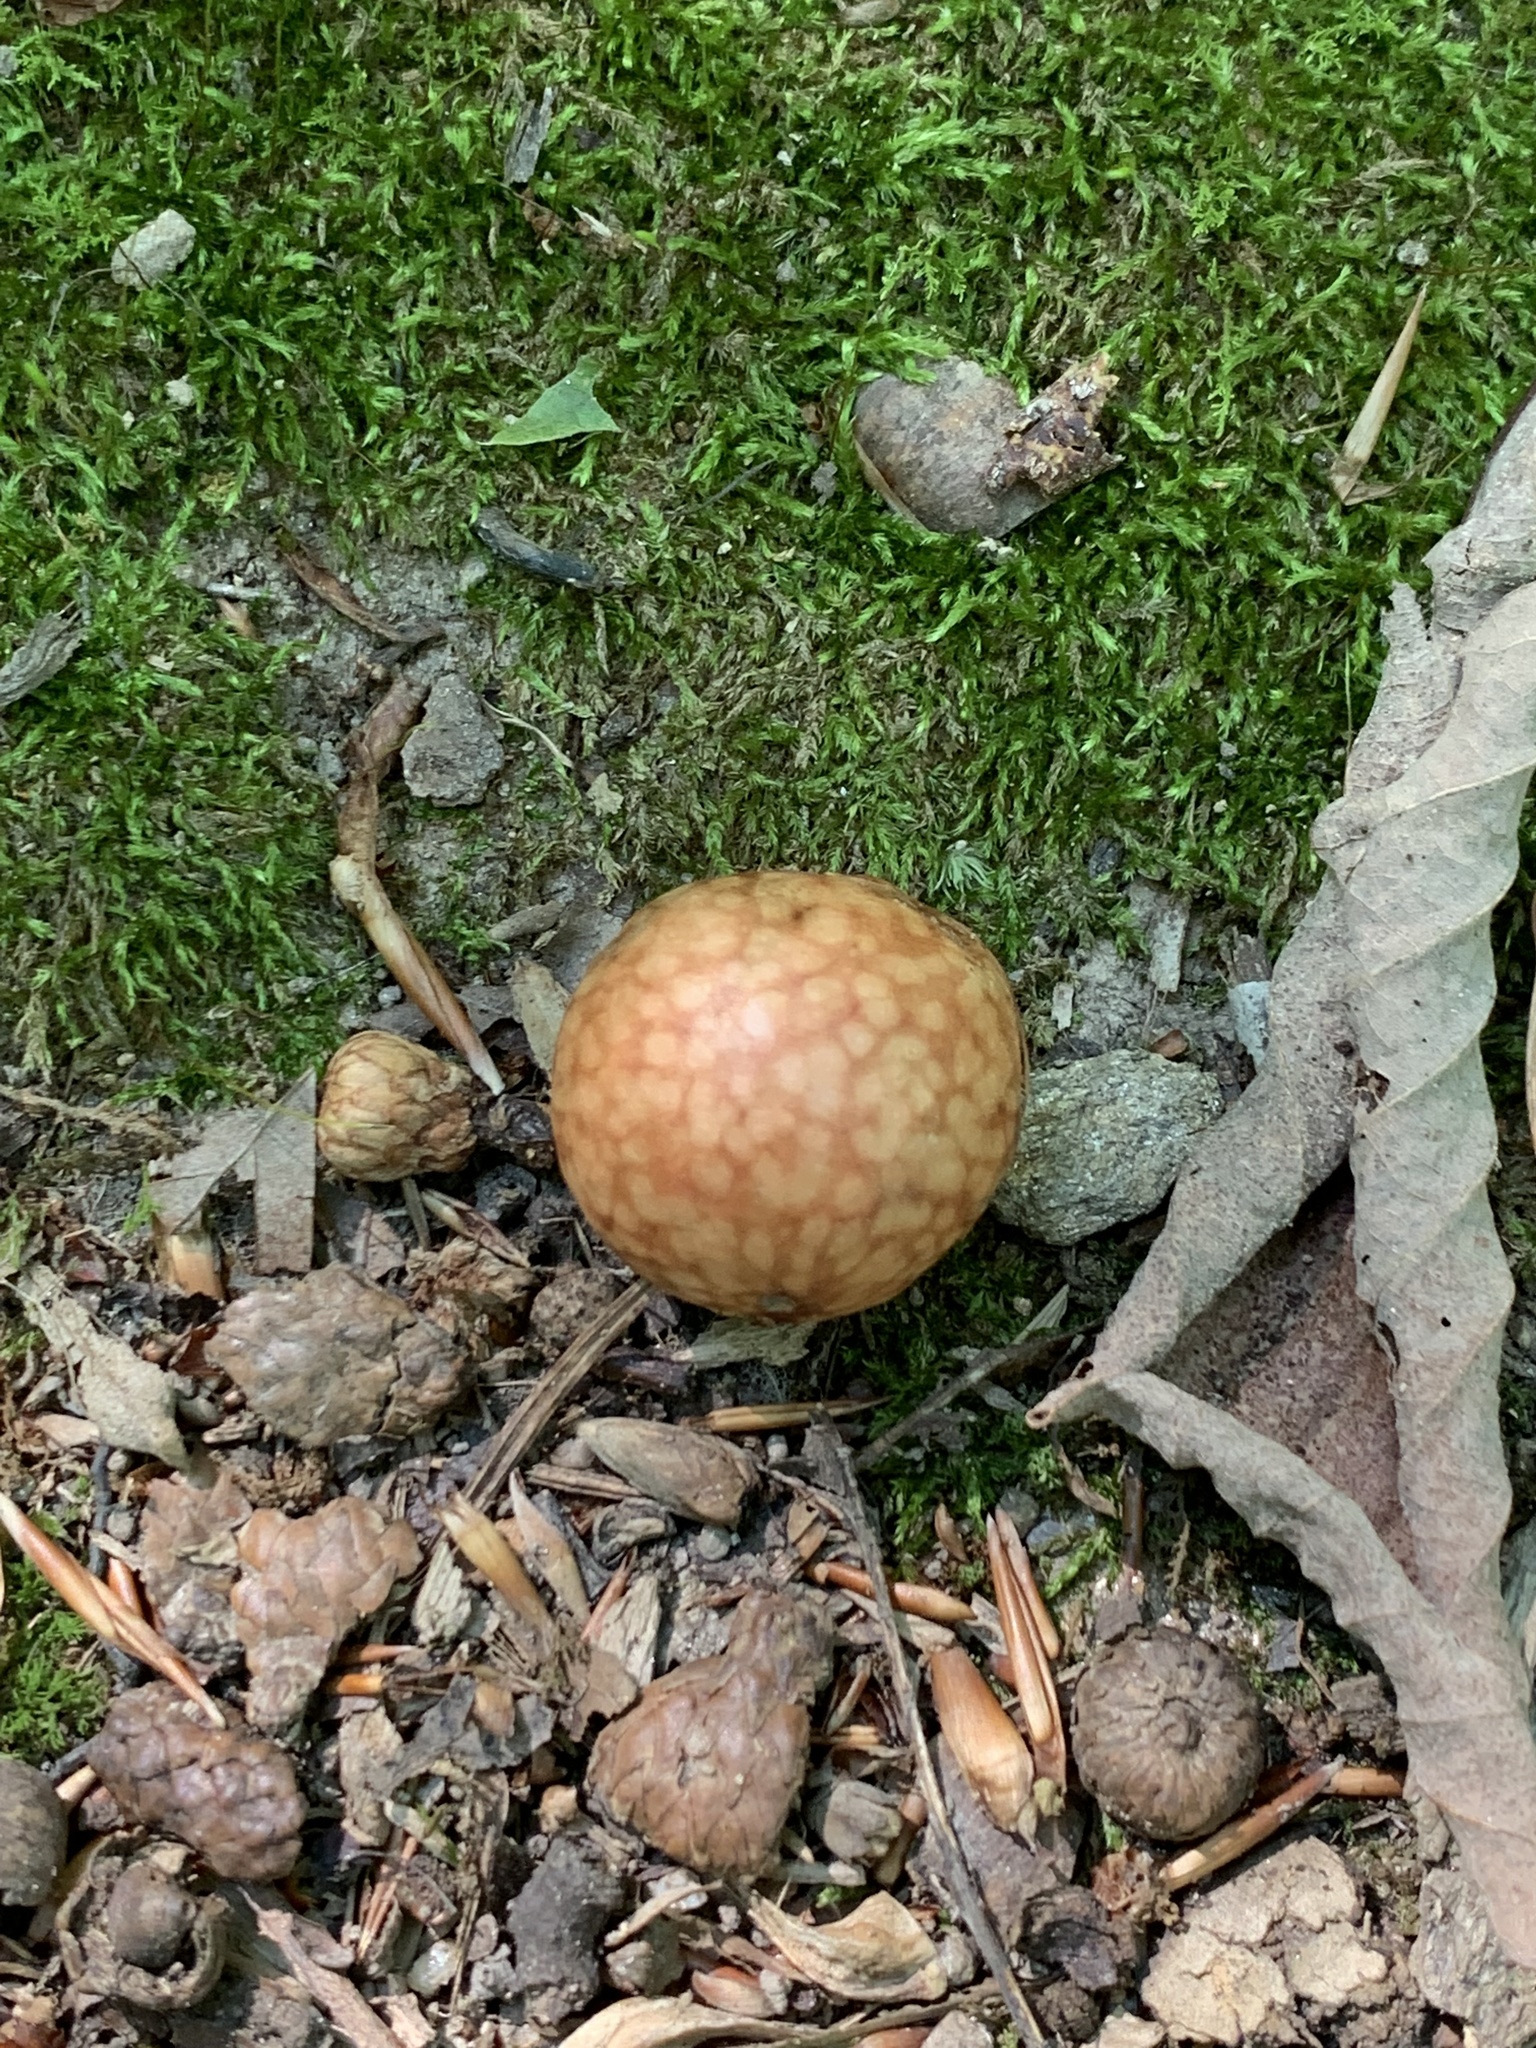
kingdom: Animalia
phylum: Arthropoda
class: Insecta
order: Hymenoptera
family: Cynipidae
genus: Amphibolips
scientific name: Amphibolips
